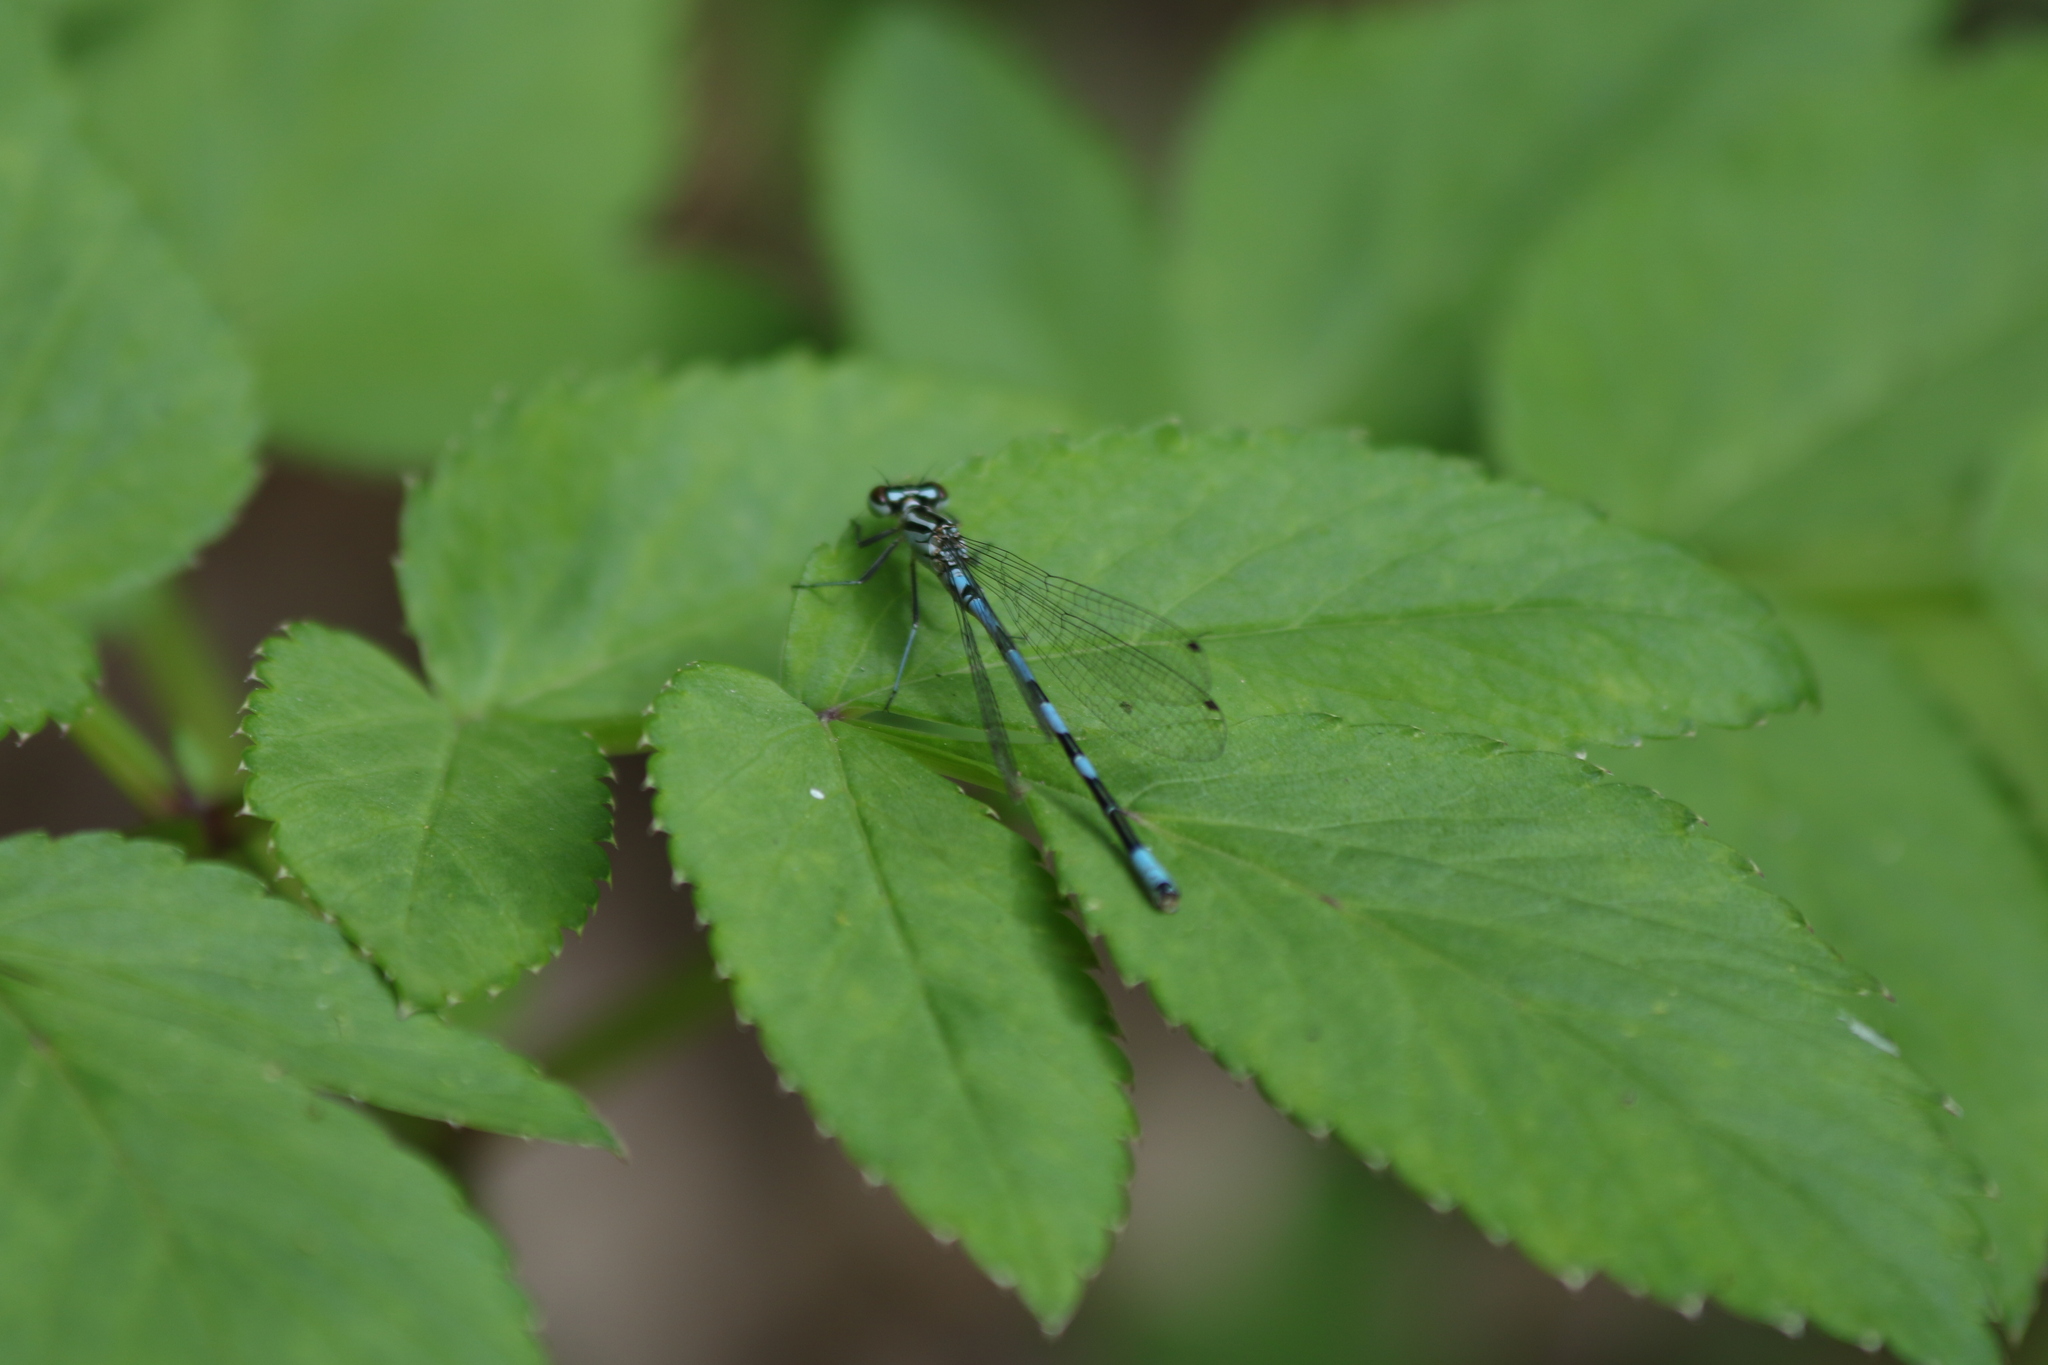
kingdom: Animalia
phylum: Arthropoda
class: Insecta
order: Odonata
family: Coenagrionidae
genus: Coenagrion
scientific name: Coenagrion hastulatum
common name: Spearhead bluet
